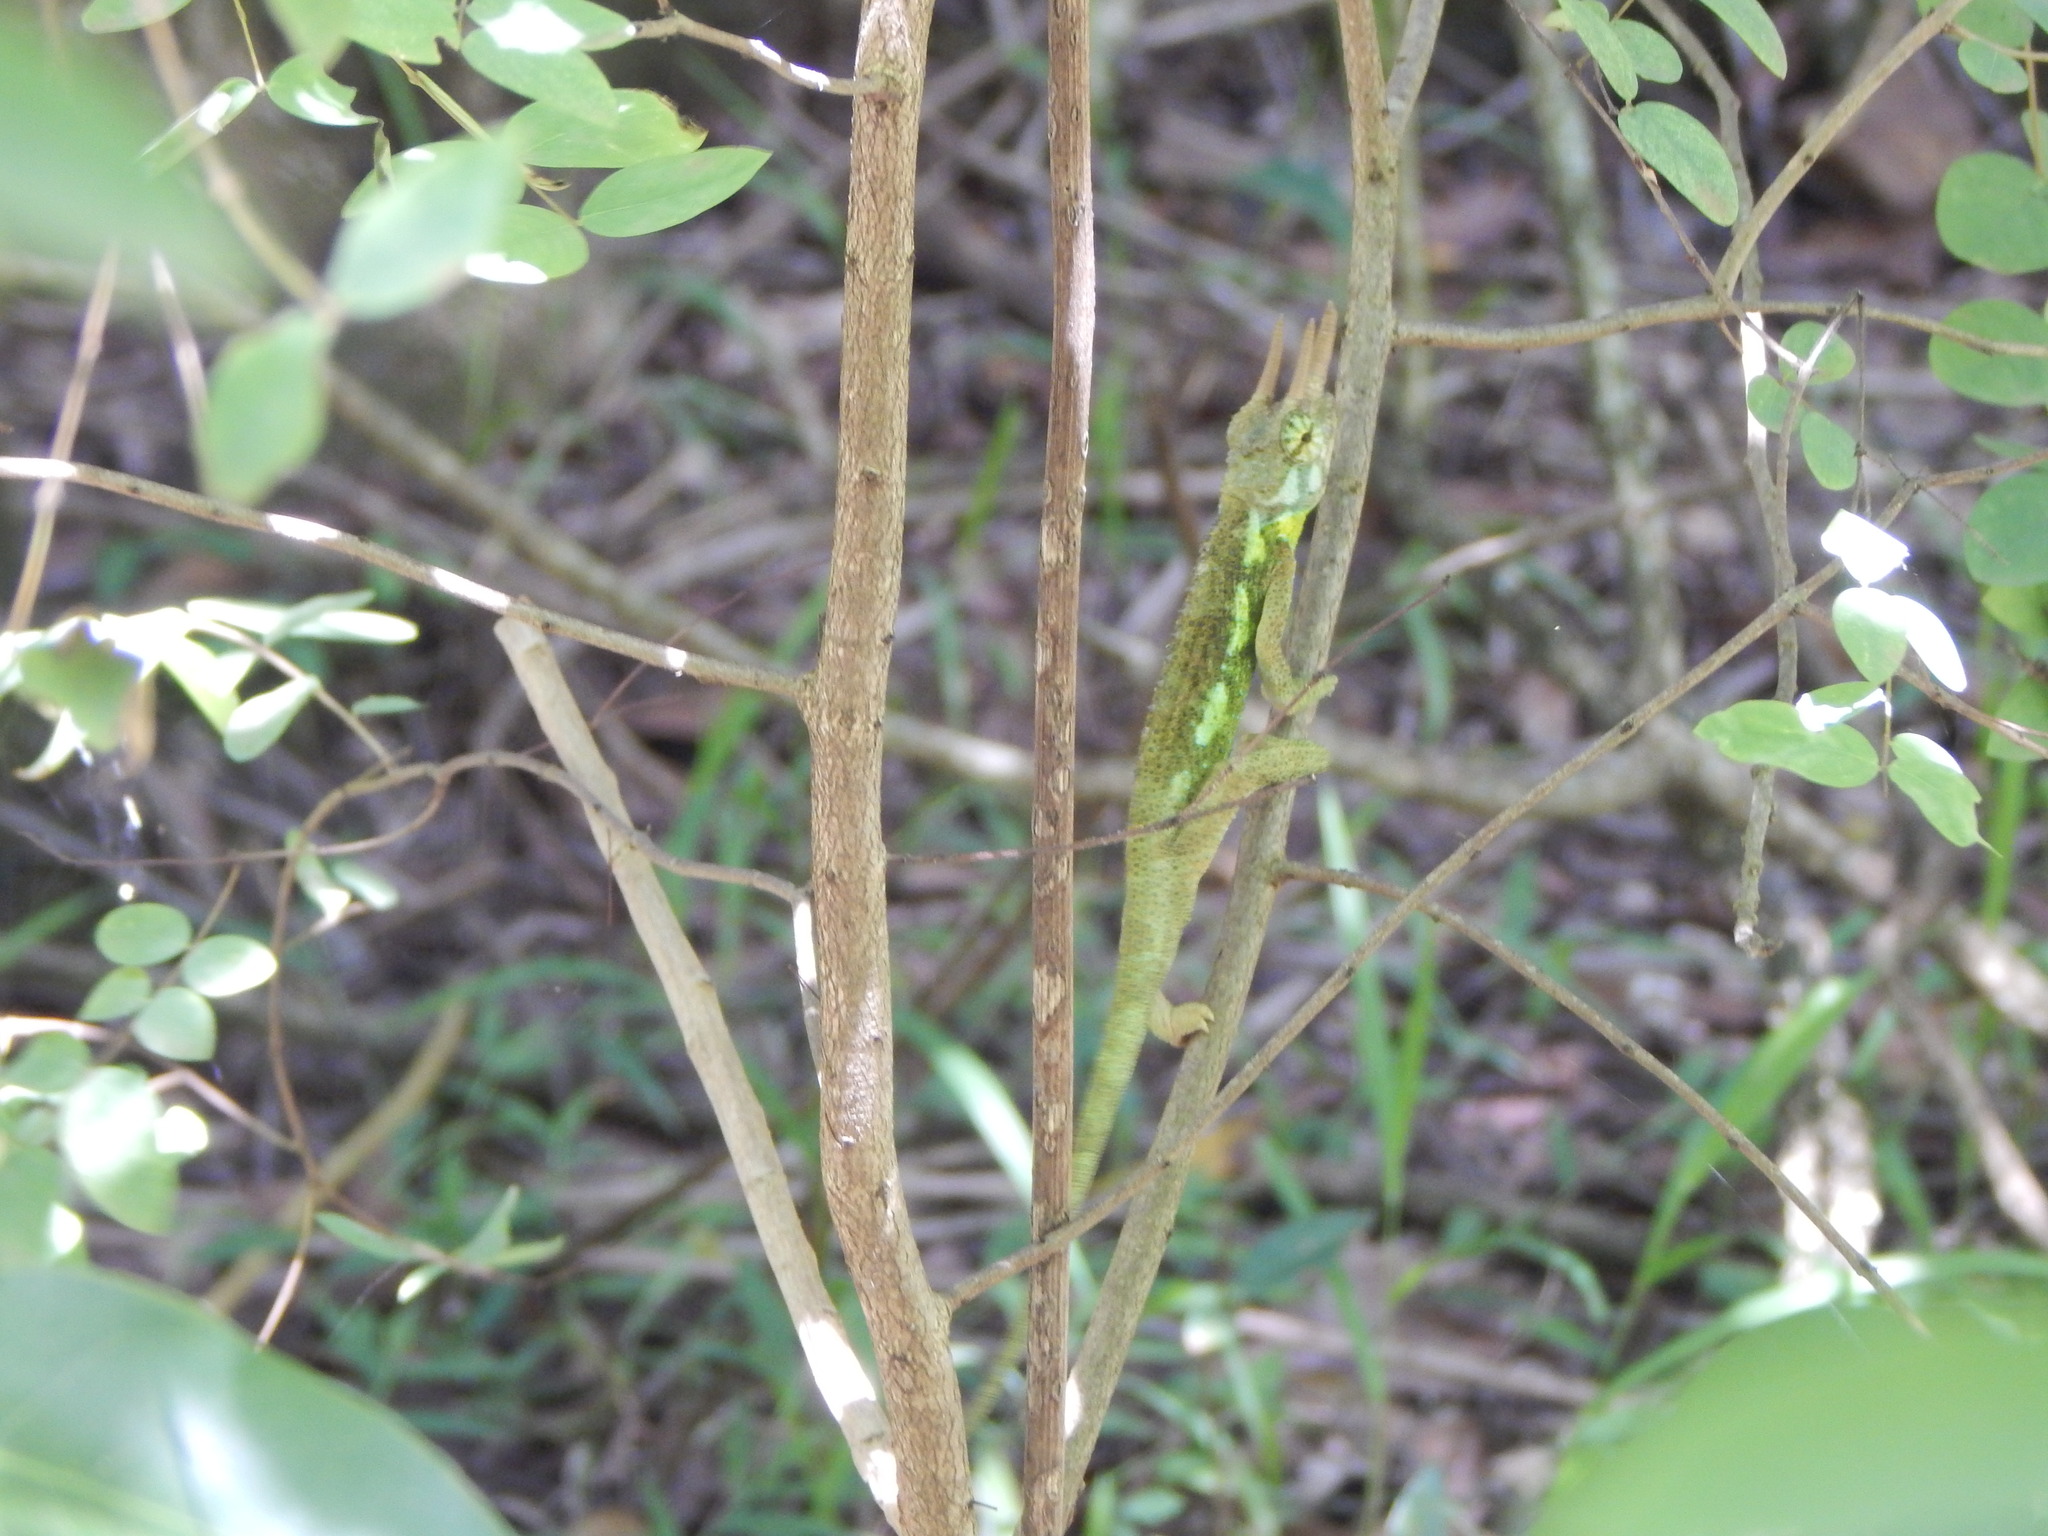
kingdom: Animalia
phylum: Chordata
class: Squamata
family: Chamaeleonidae
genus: Trioceros
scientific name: Trioceros jacksonii
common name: Jackson's chameleon
